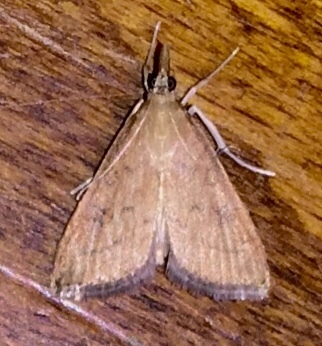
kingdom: Animalia
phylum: Arthropoda
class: Insecta
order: Lepidoptera
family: Crambidae
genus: Udea
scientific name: Udea rubigalis
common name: Celery leaftier moth
